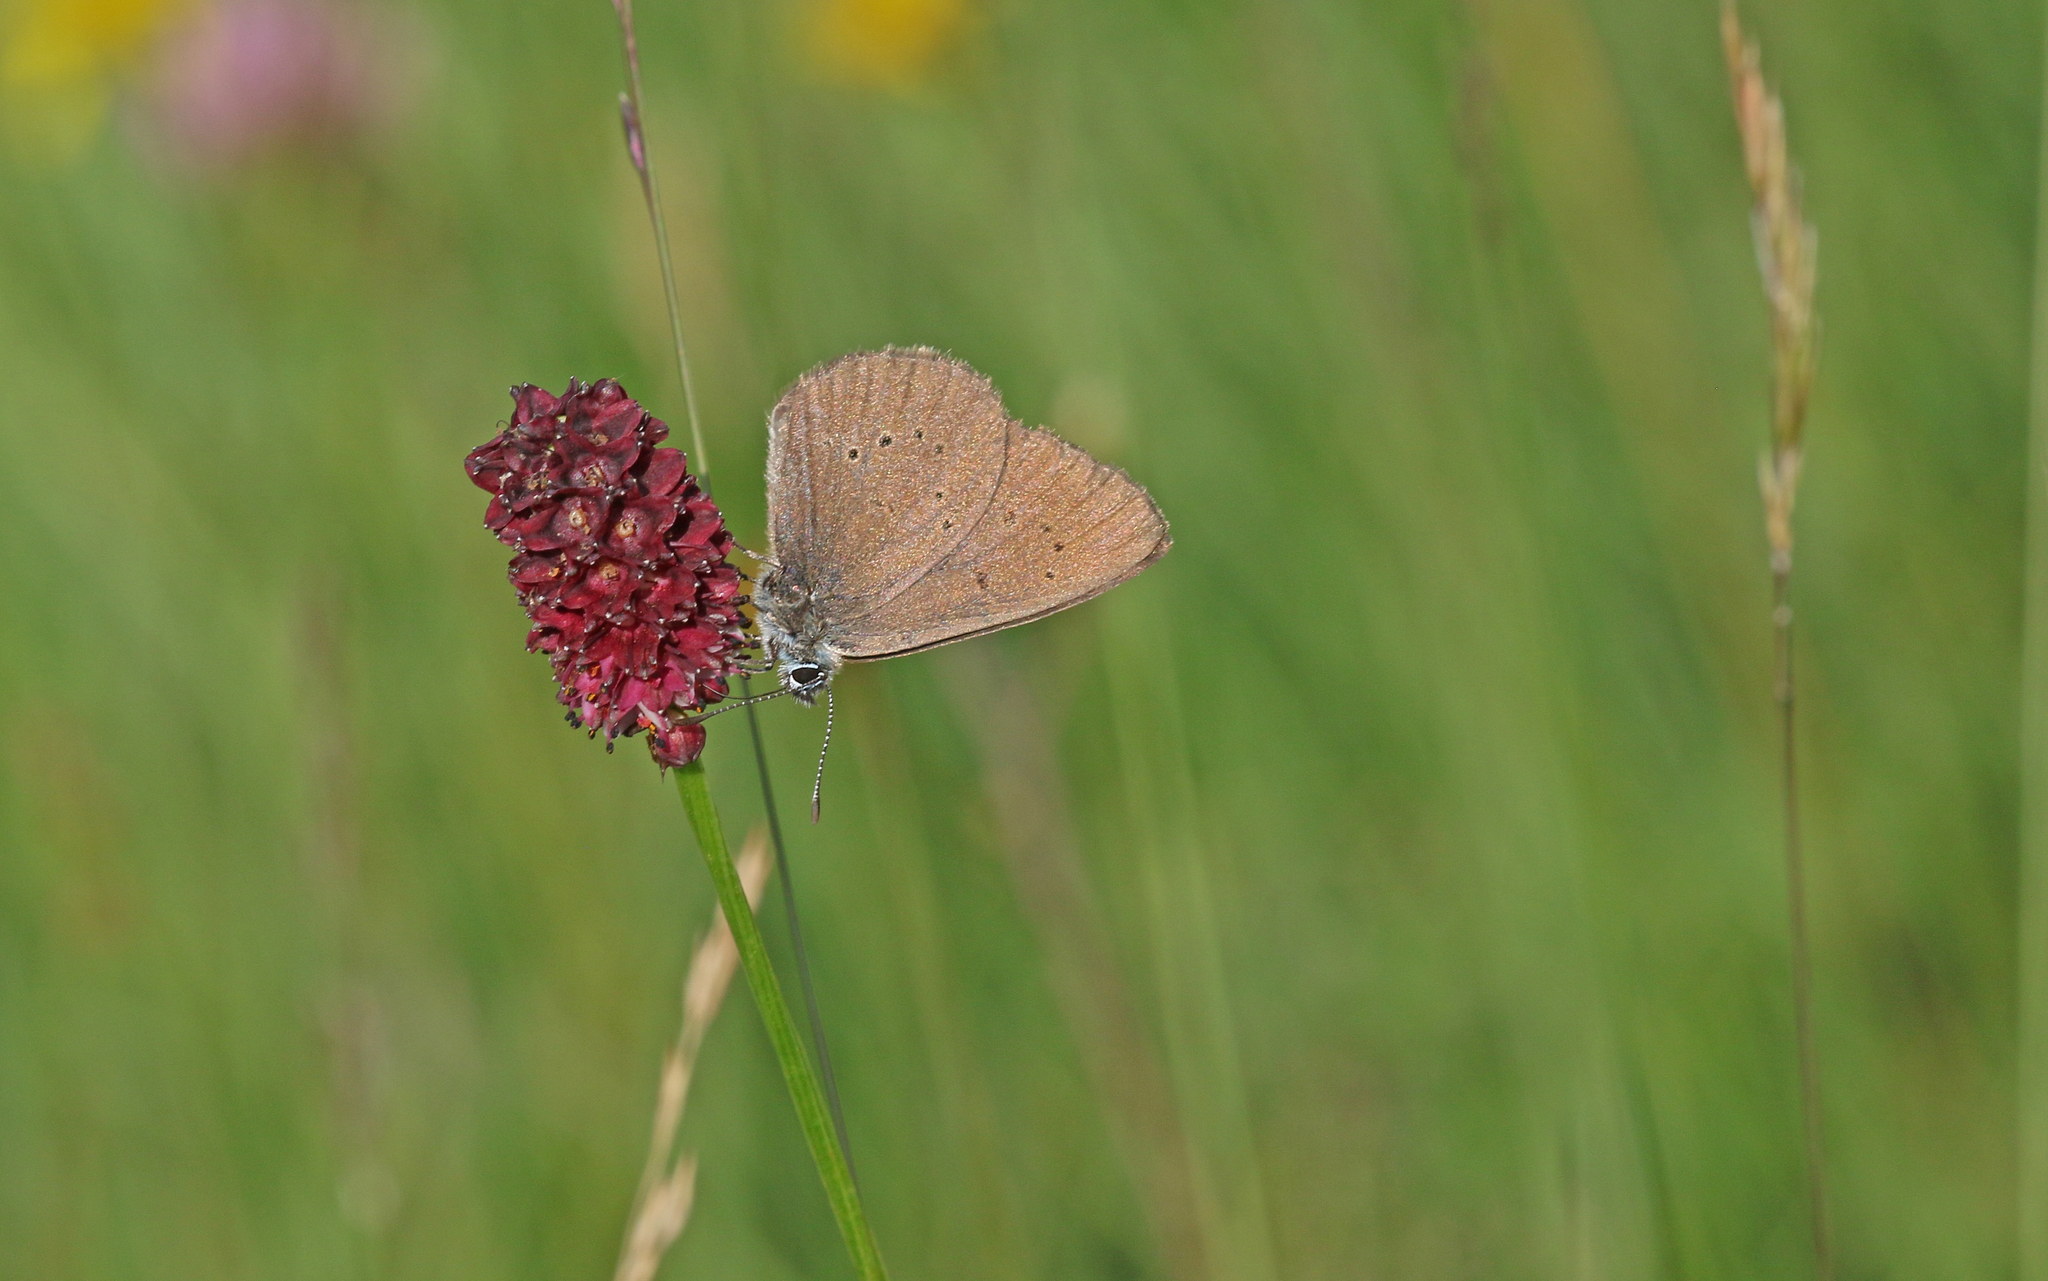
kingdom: Animalia
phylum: Arthropoda
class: Insecta
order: Lepidoptera
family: Lycaenidae
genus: Maculinea
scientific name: Maculinea nausithous
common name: Dusky large blue
